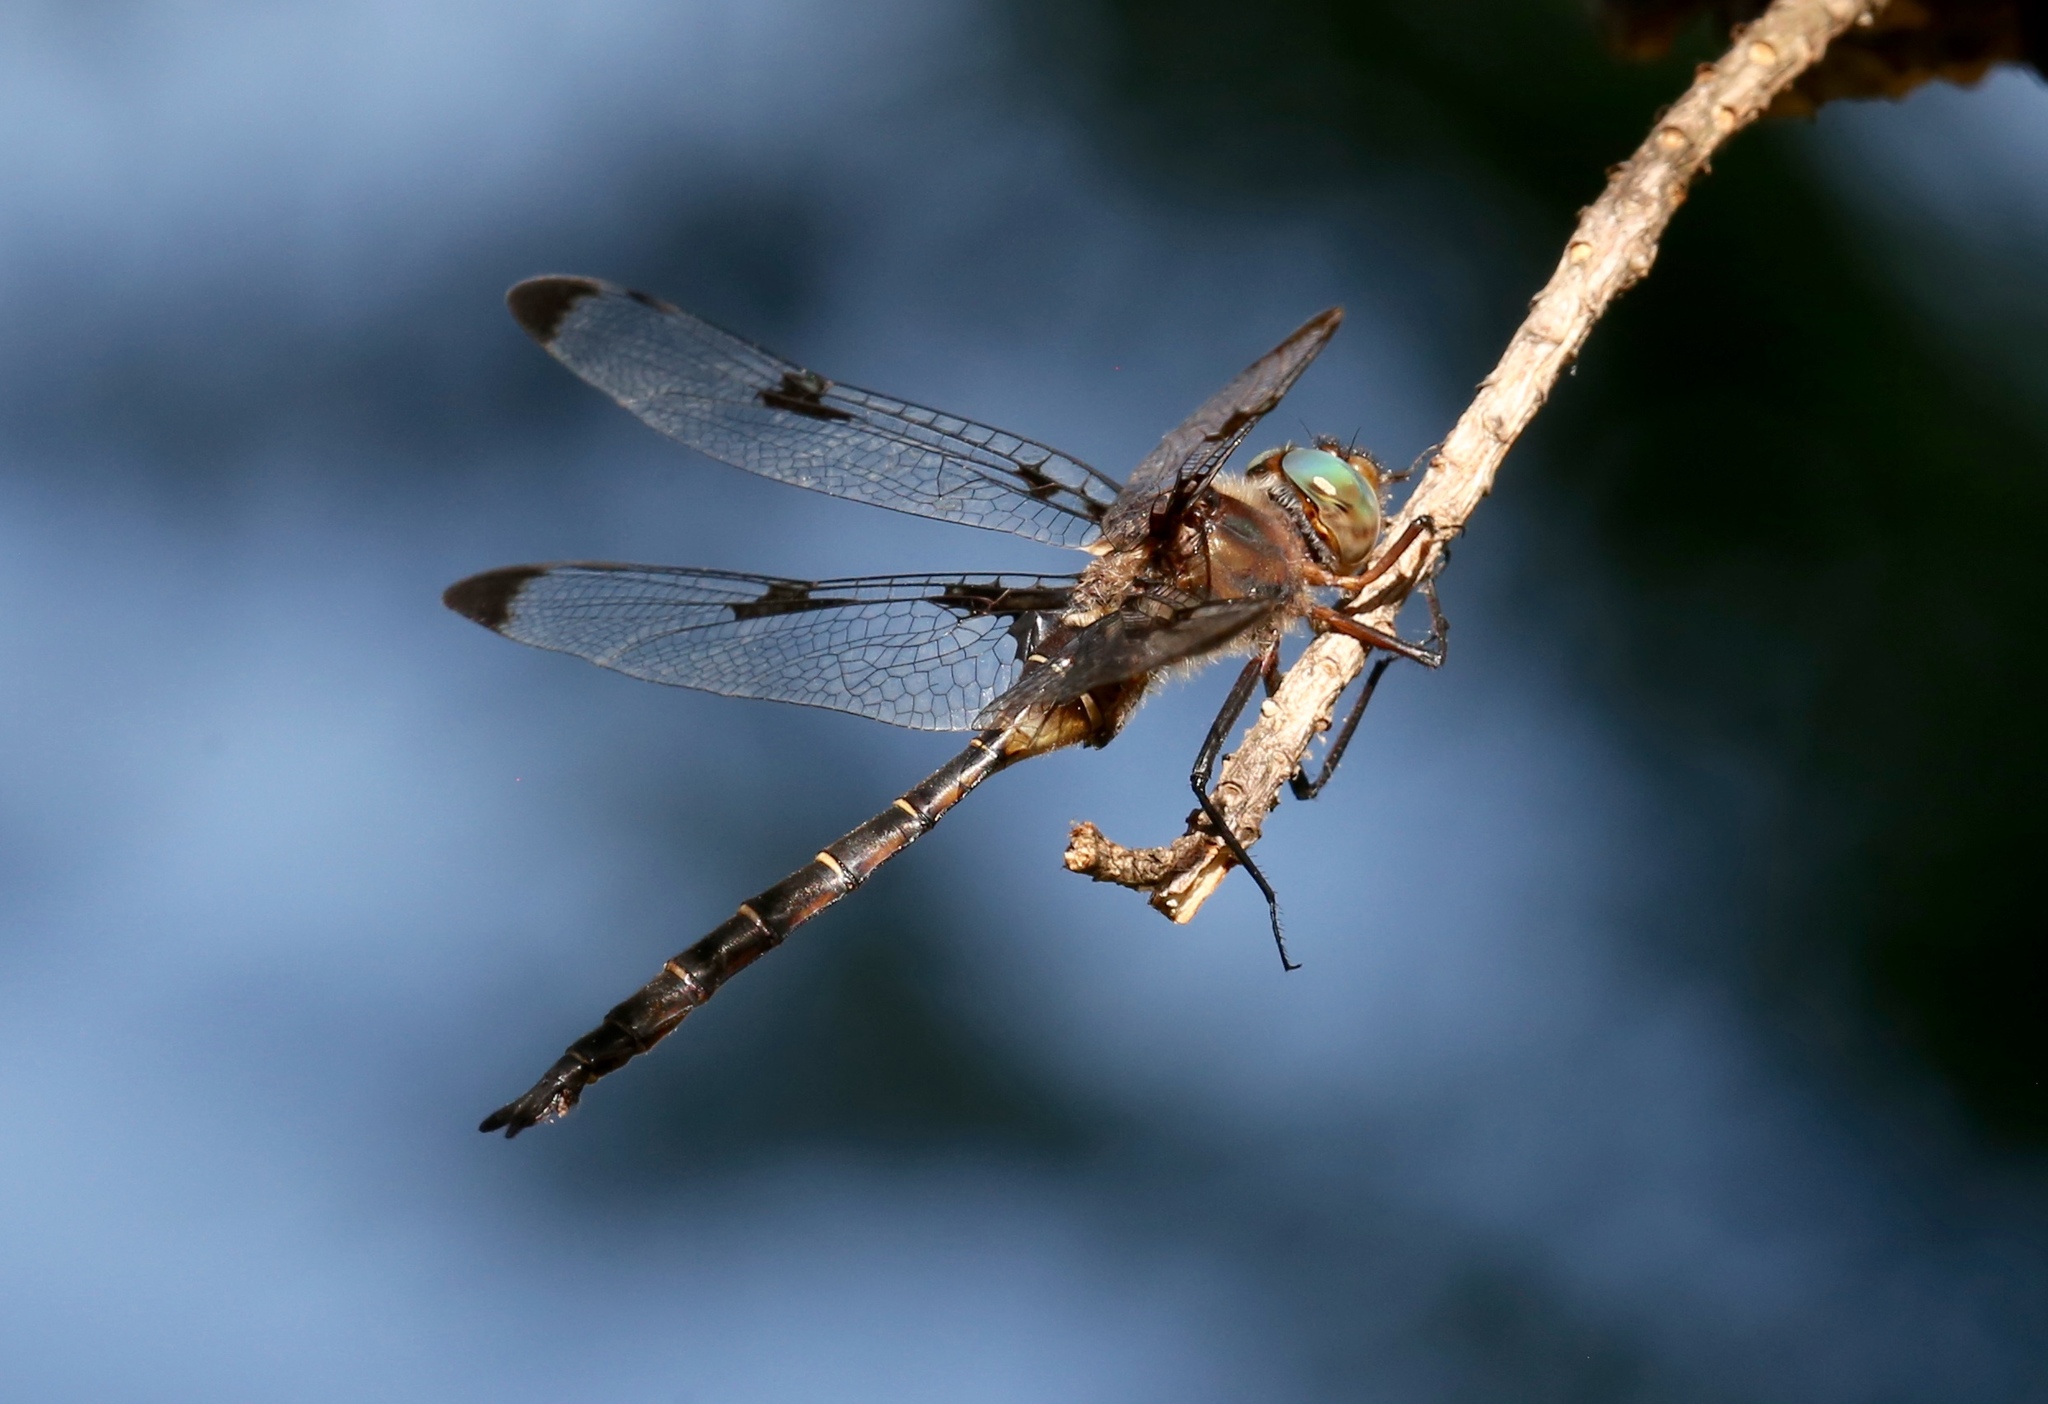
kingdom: Animalia
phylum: Arthropoda
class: Insecta
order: Odonata
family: Corduliidae
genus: Epitheca
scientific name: Epitheca princeps
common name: Prince baskettail
